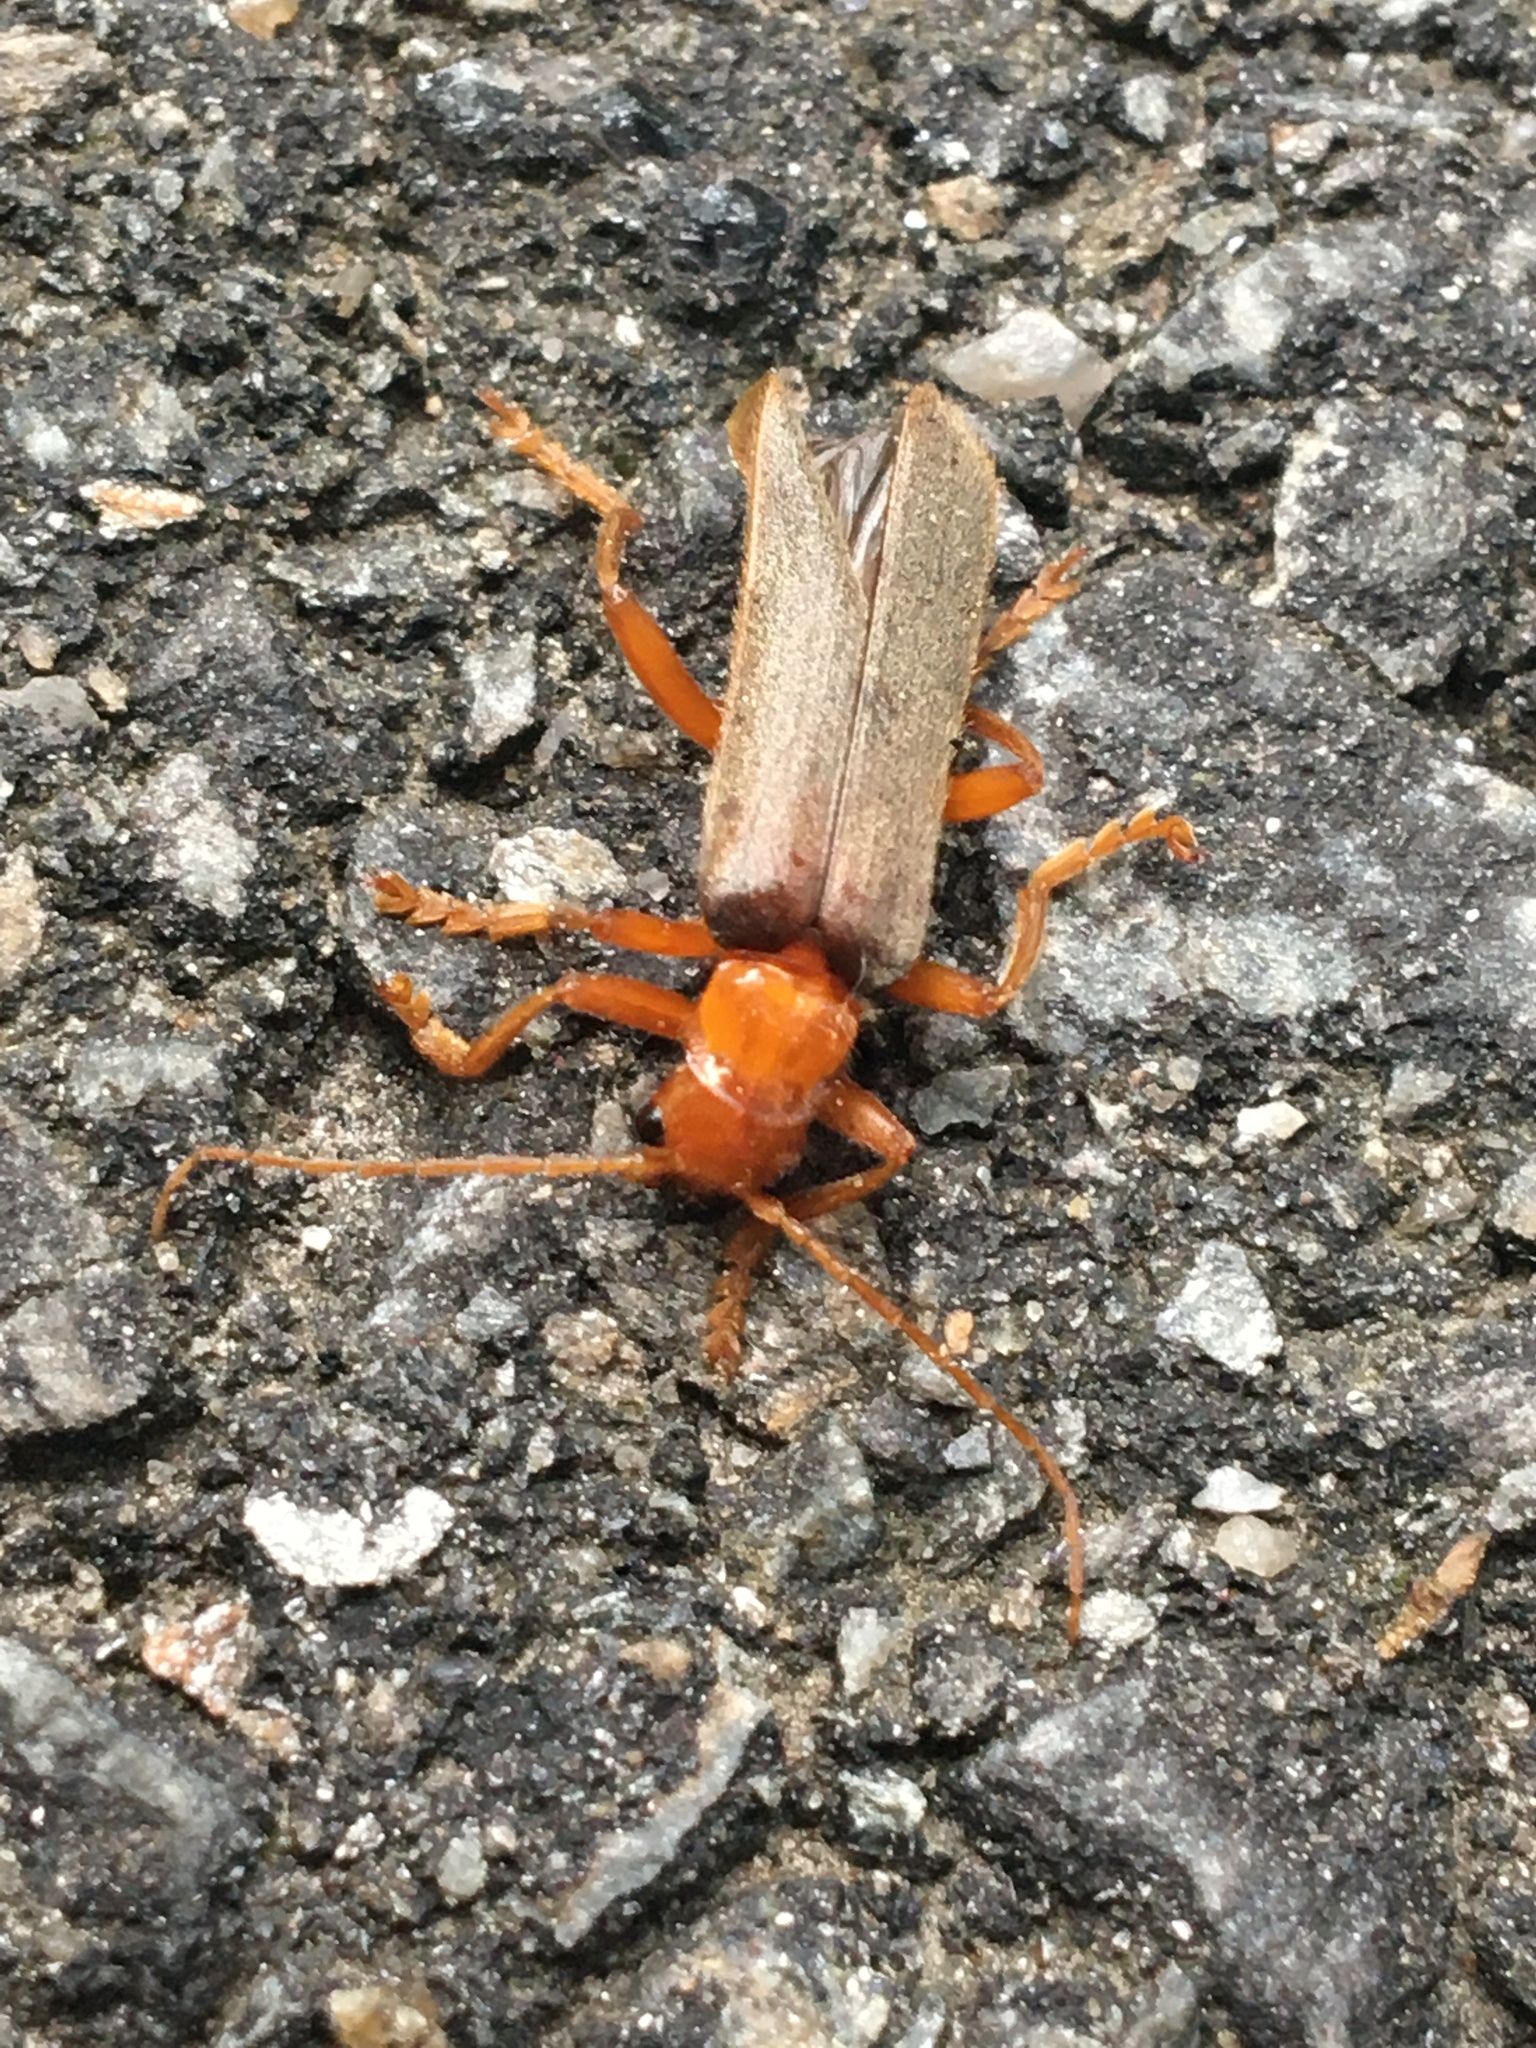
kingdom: Animalia
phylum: Arthropoda
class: Insecta
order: Coleoptera
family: Cantharidae
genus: Pacificanthia
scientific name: Pacificanthia rotundicollis
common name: Brown leatherwing beetle
